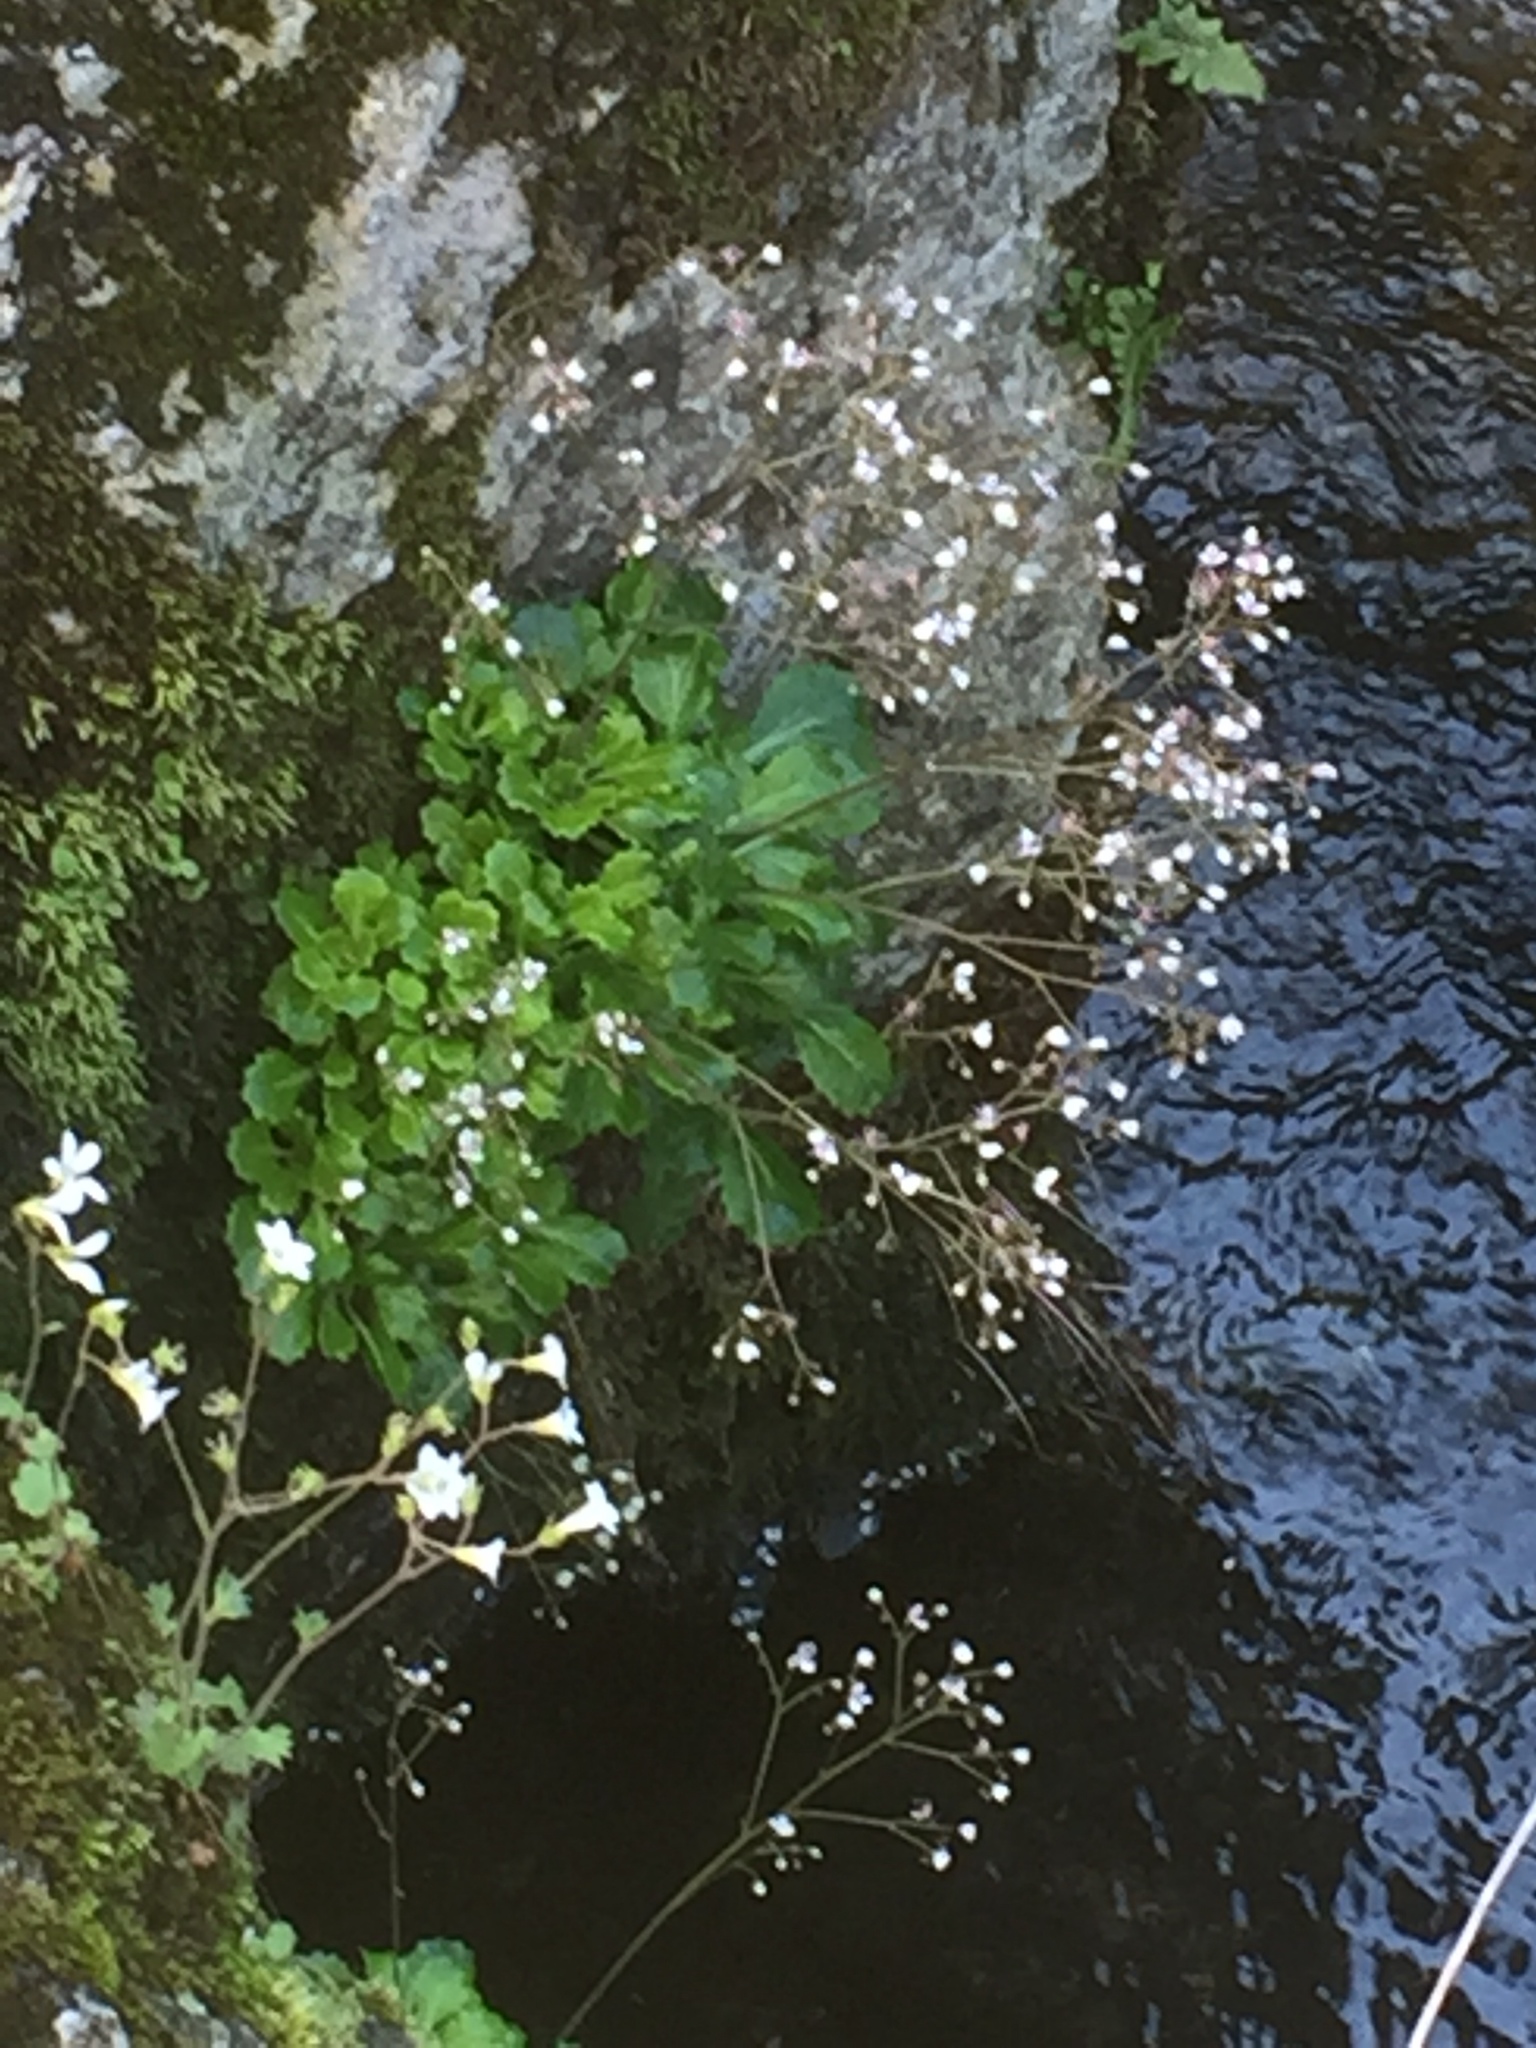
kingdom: Plantae
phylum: Tracheophyta
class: Magnoliopsida
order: Saxifragales
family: Saxifragaceae
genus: Saxifraga
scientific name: Saxifraga spathularis
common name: St patrick's-cabbage
